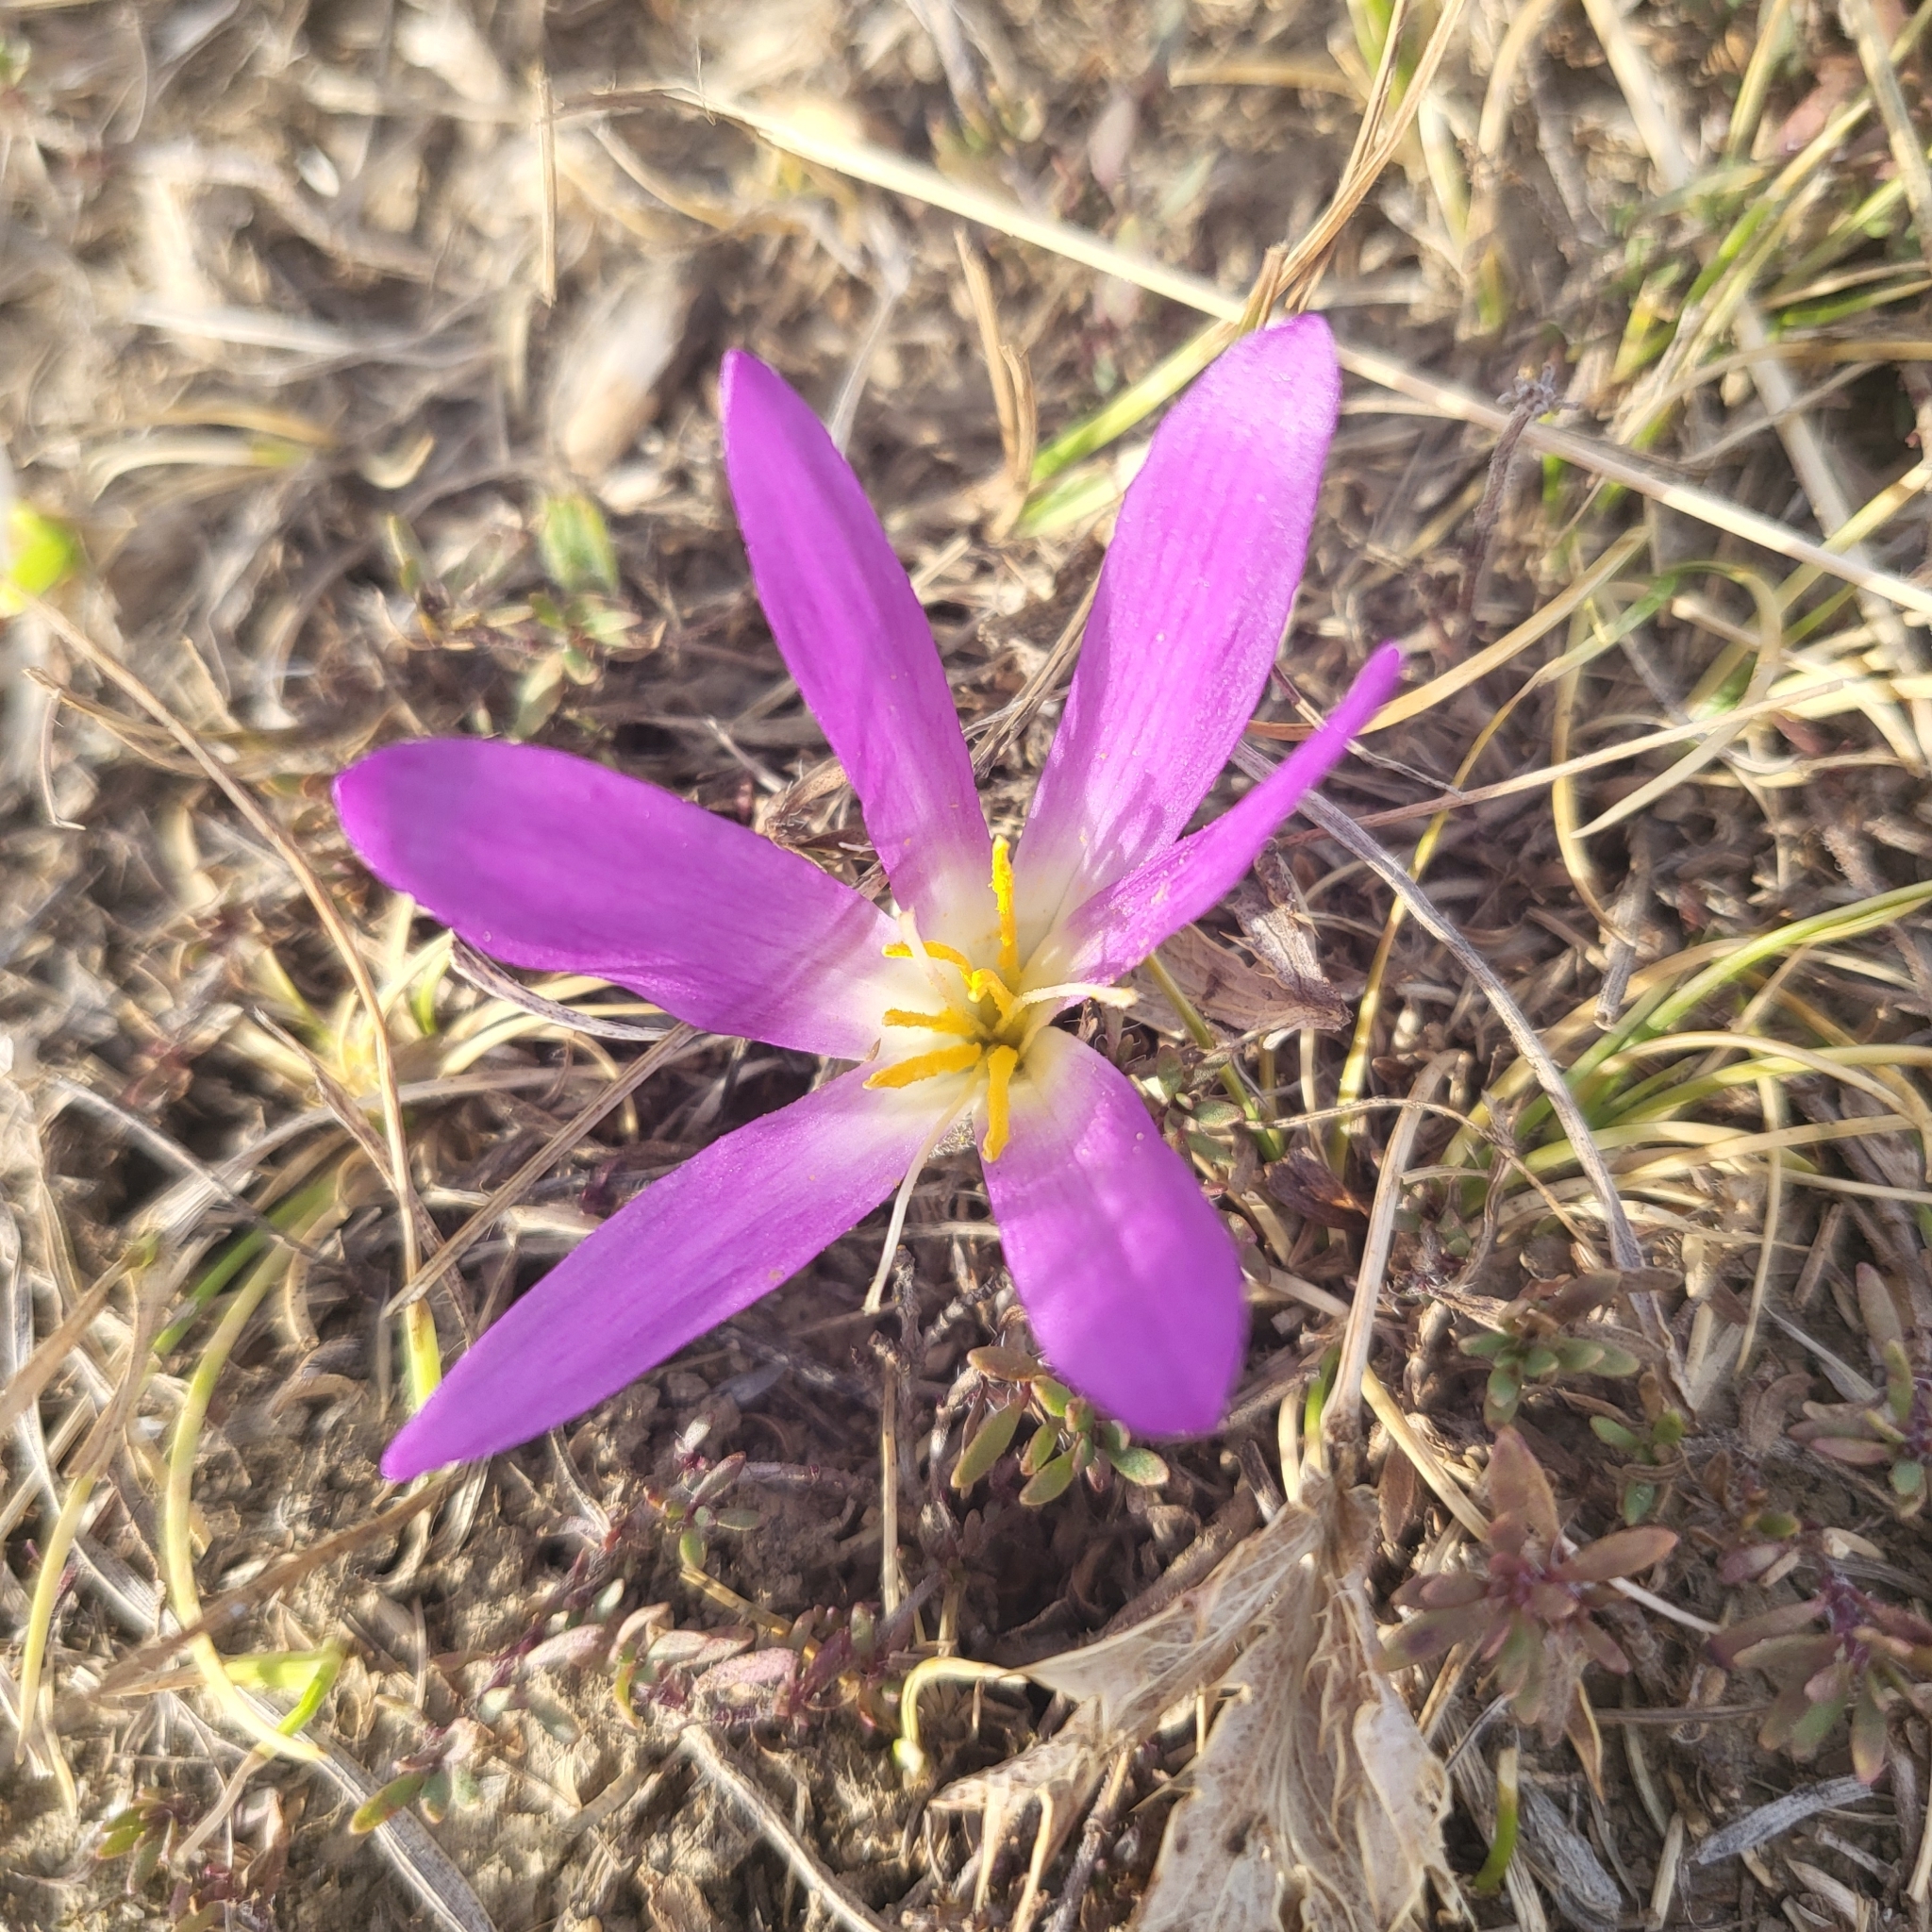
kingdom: Plantae
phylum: Tracheophyta
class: Liliopsida
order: Liliales
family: Colchicaceae
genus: Colchicum
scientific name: Colchicum montanum
